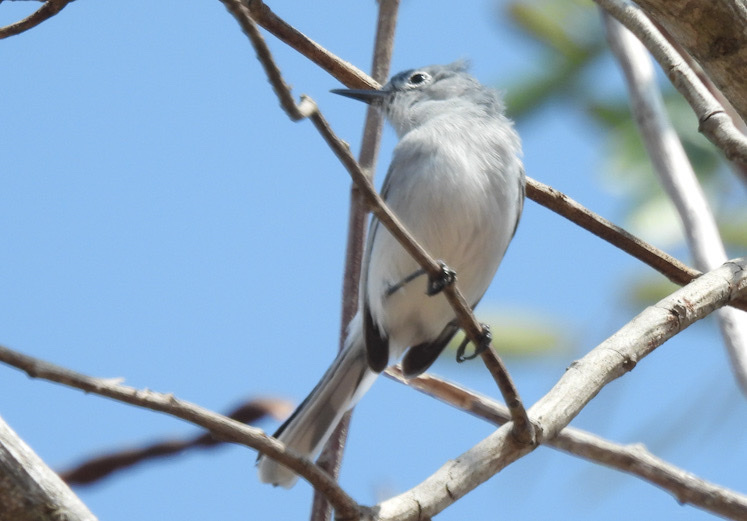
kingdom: Animalia
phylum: Chordata
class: Aves
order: Passeriformes
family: Polioptilidae
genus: Polioptila
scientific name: Polioptila caerulea
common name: Blue-gray gnatcatcher
